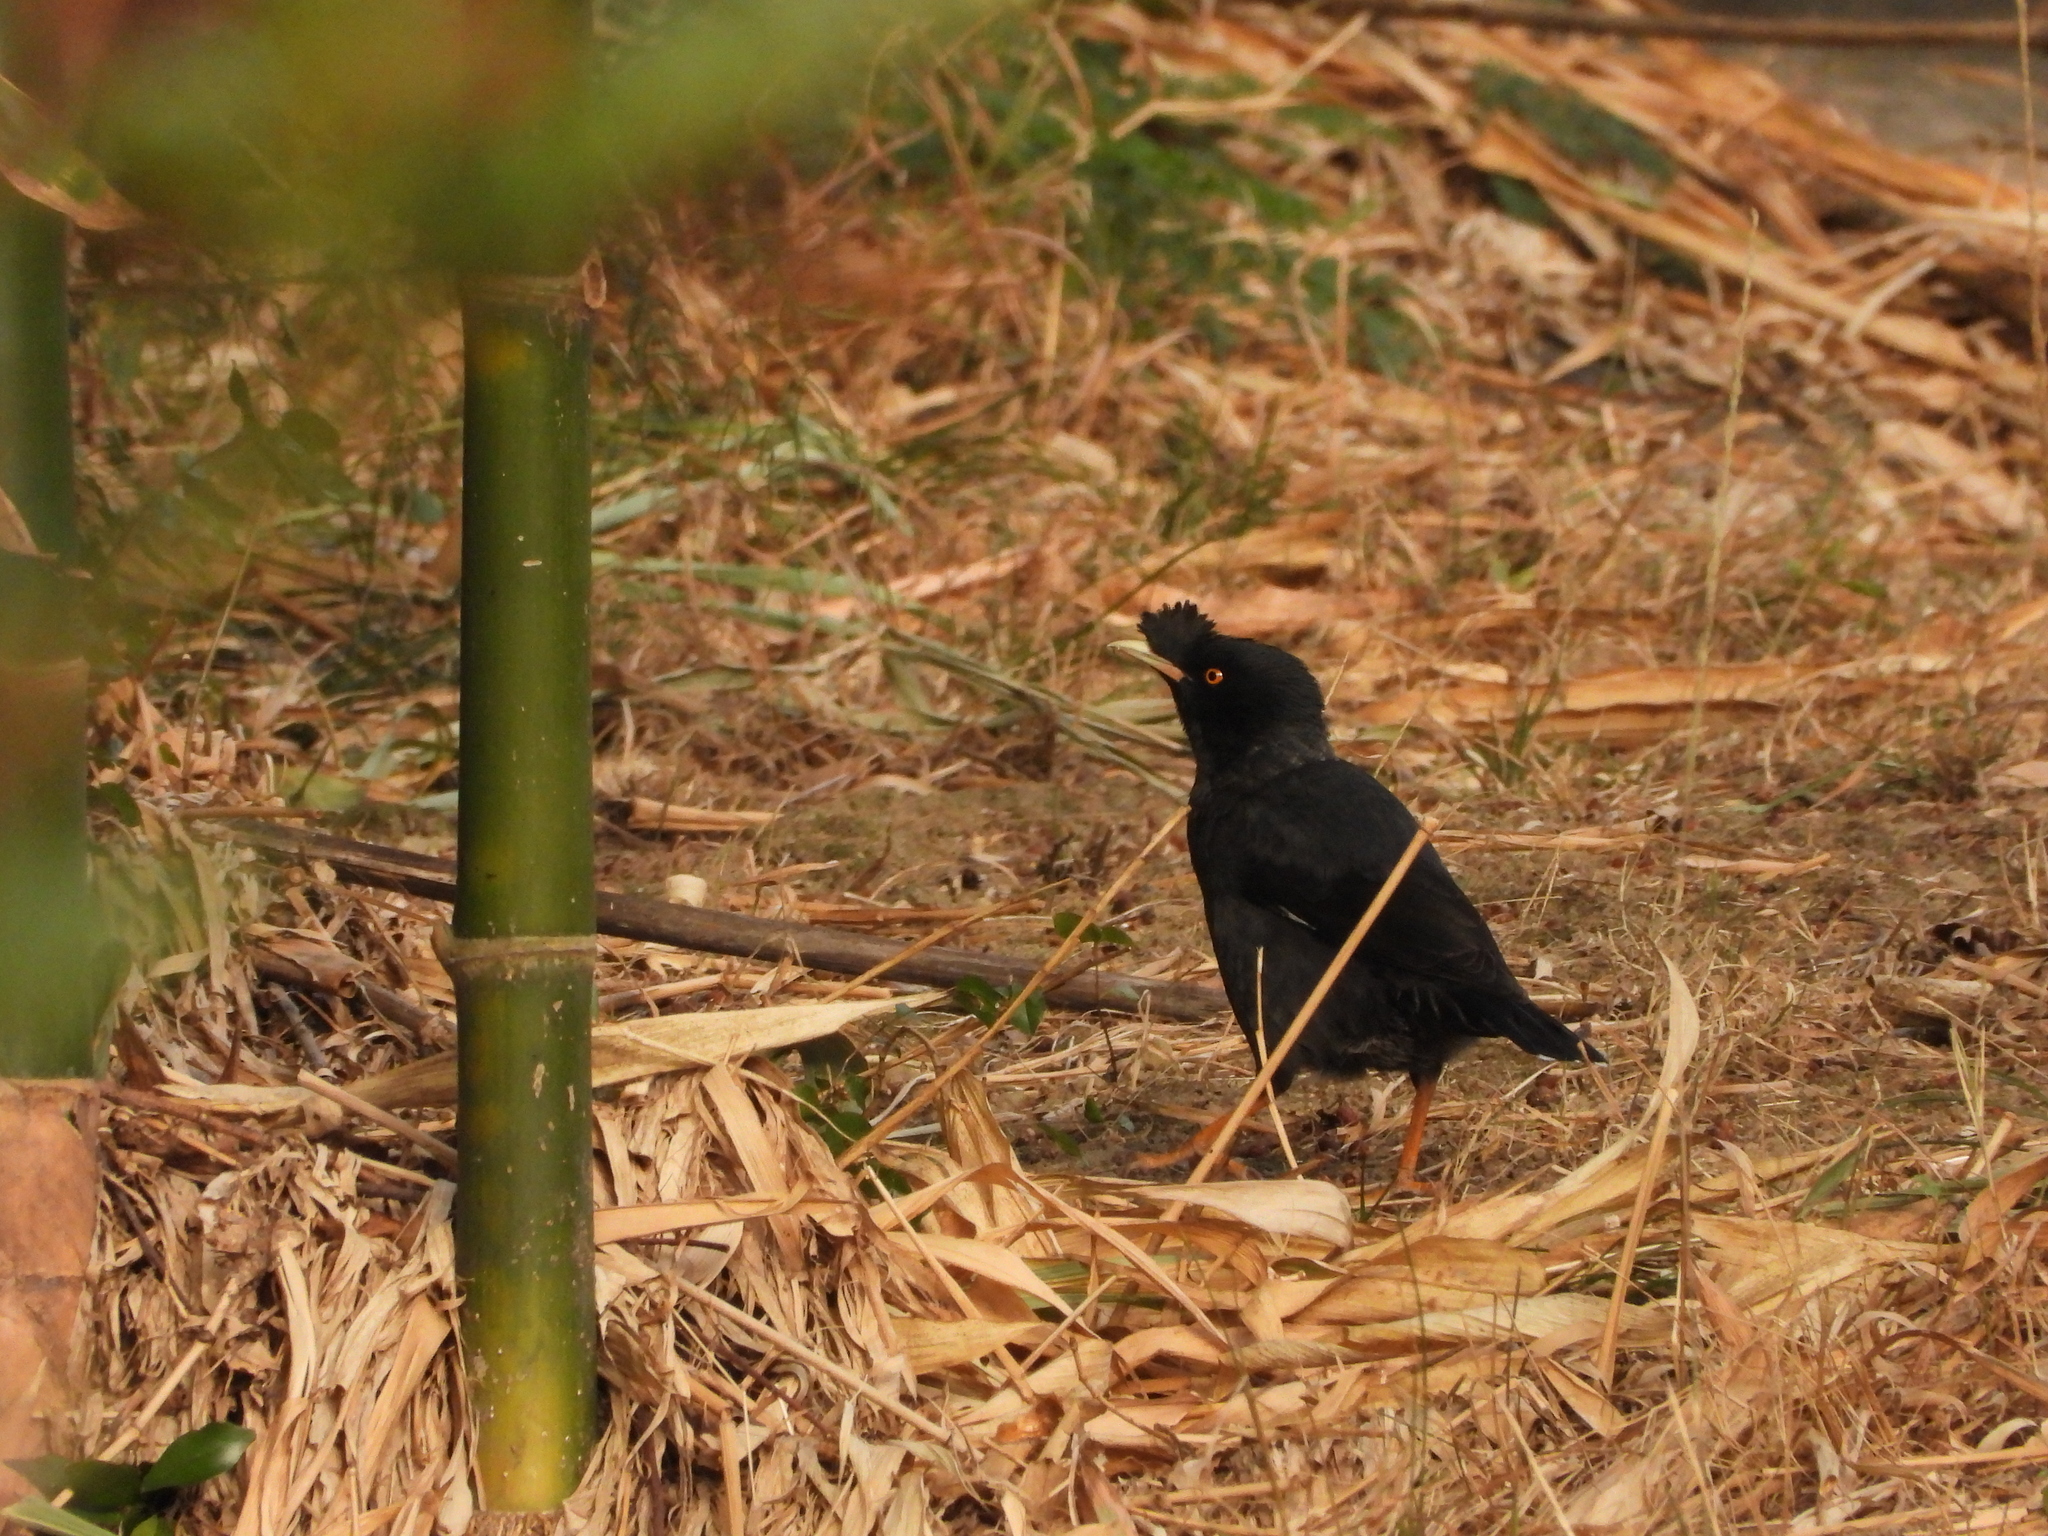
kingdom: Animalia
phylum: Chordata
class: Aves
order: Passeriformes
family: Sturnidae
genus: Acridotheres
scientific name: Acridotheres cristatellus
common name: Crested myna
